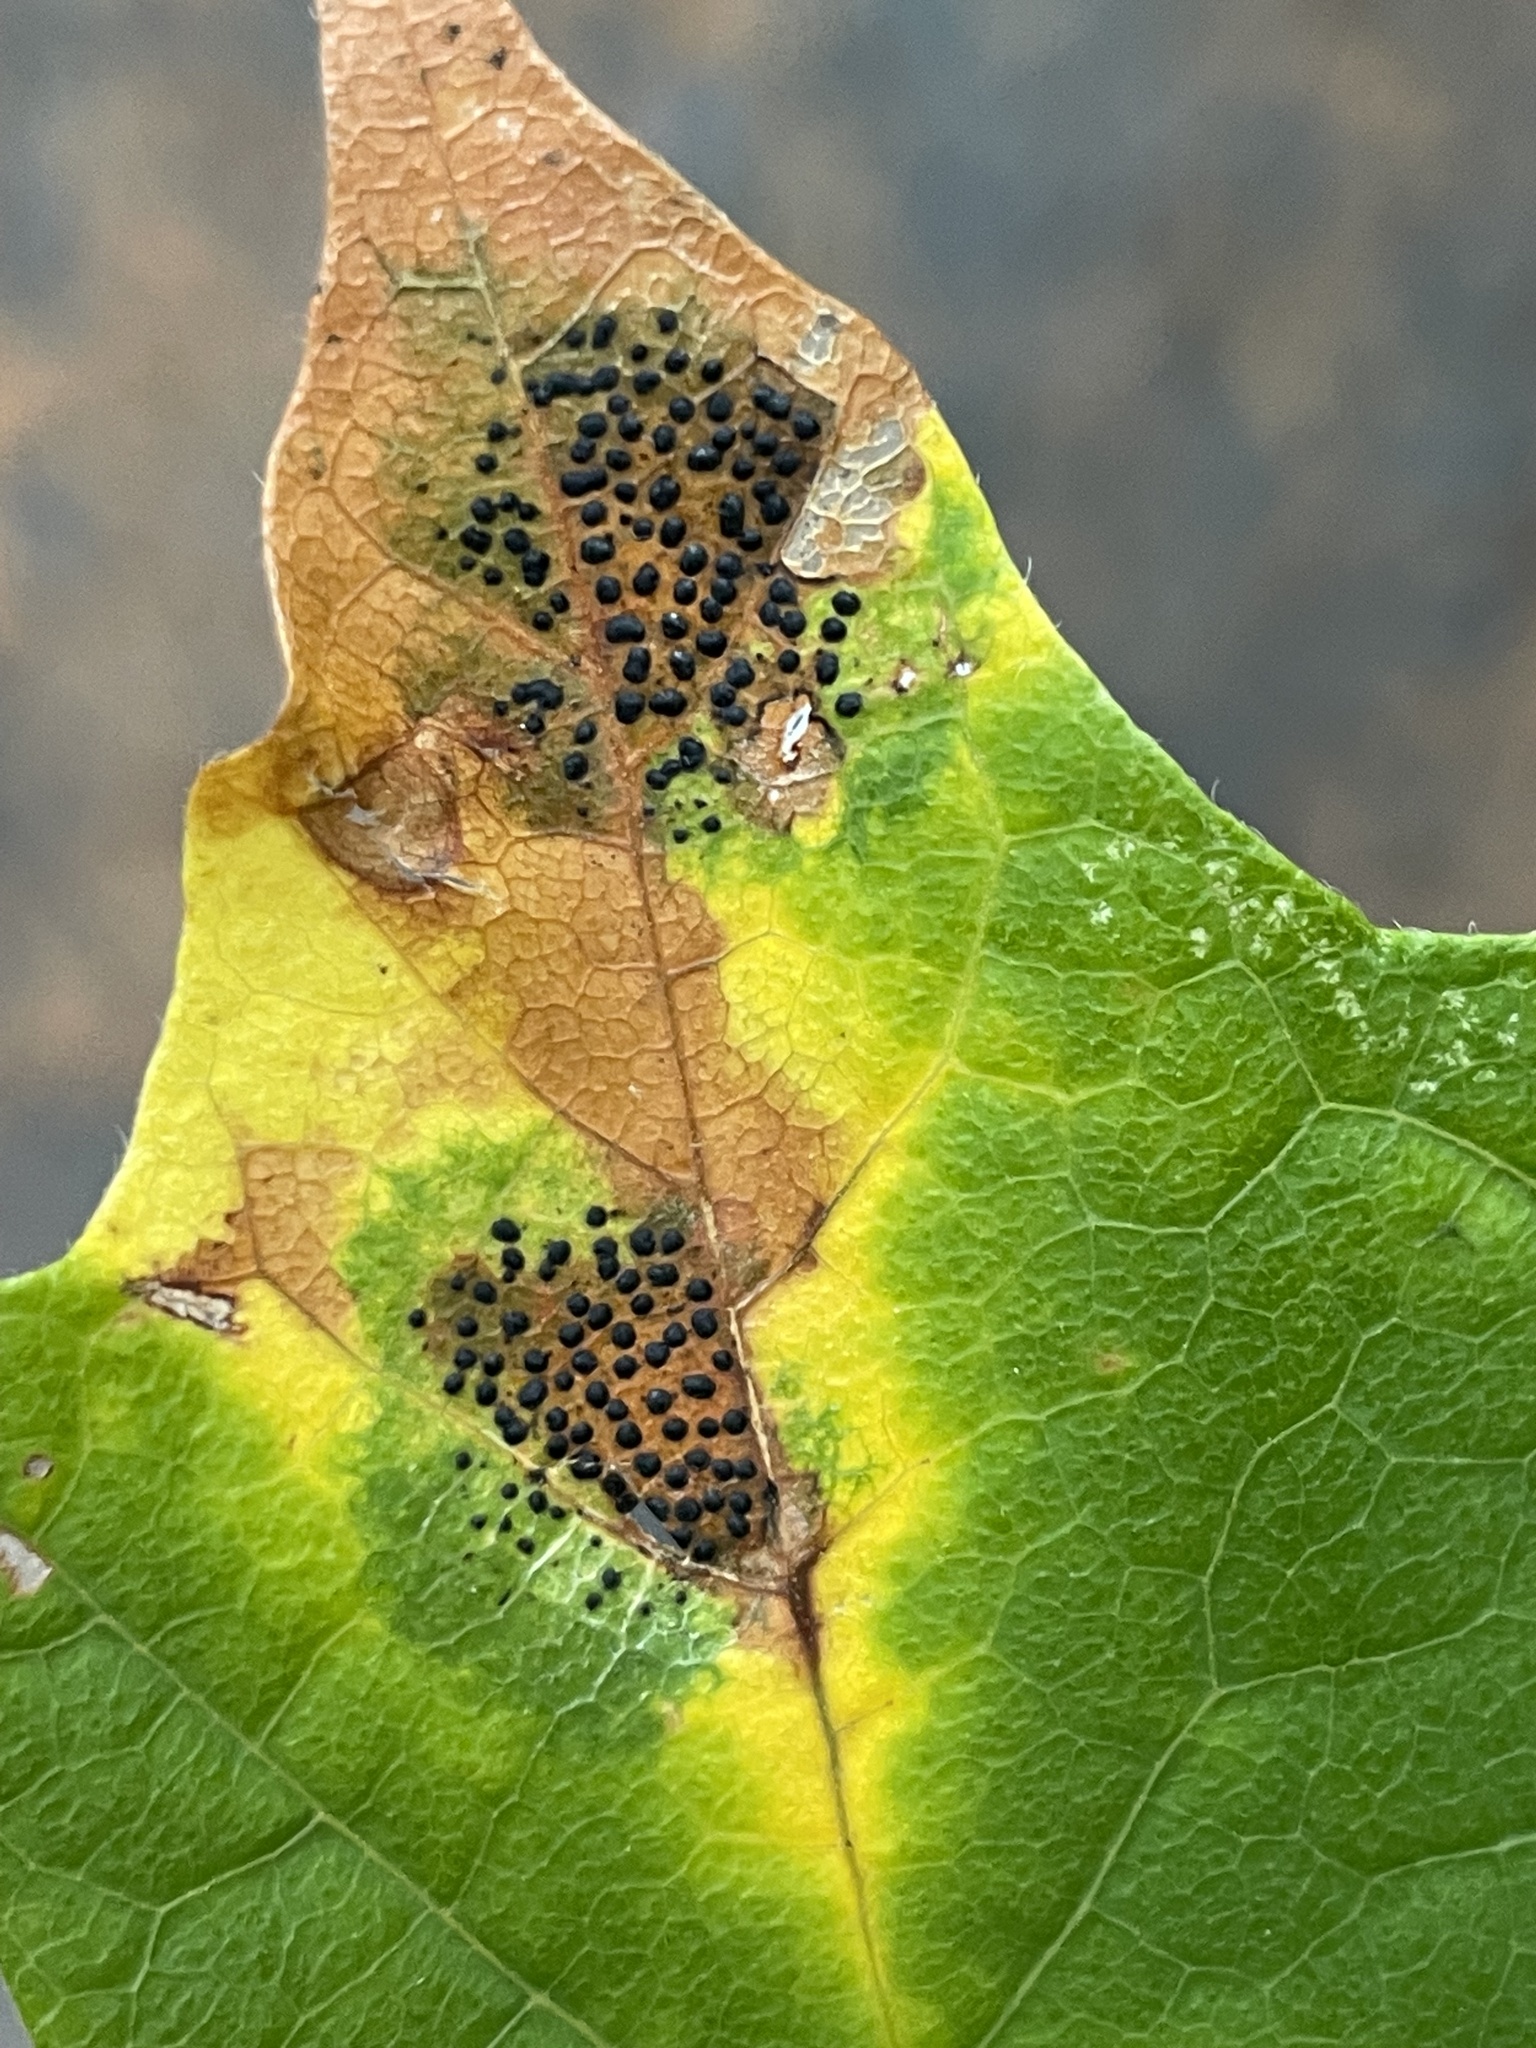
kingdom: Fungi
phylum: Ascomycota
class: Leotiomycetes
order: Rhytismatales
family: Rhytismataceae
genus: Rhytisma
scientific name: Rhytisma punctatum
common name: Speckled tar spot
